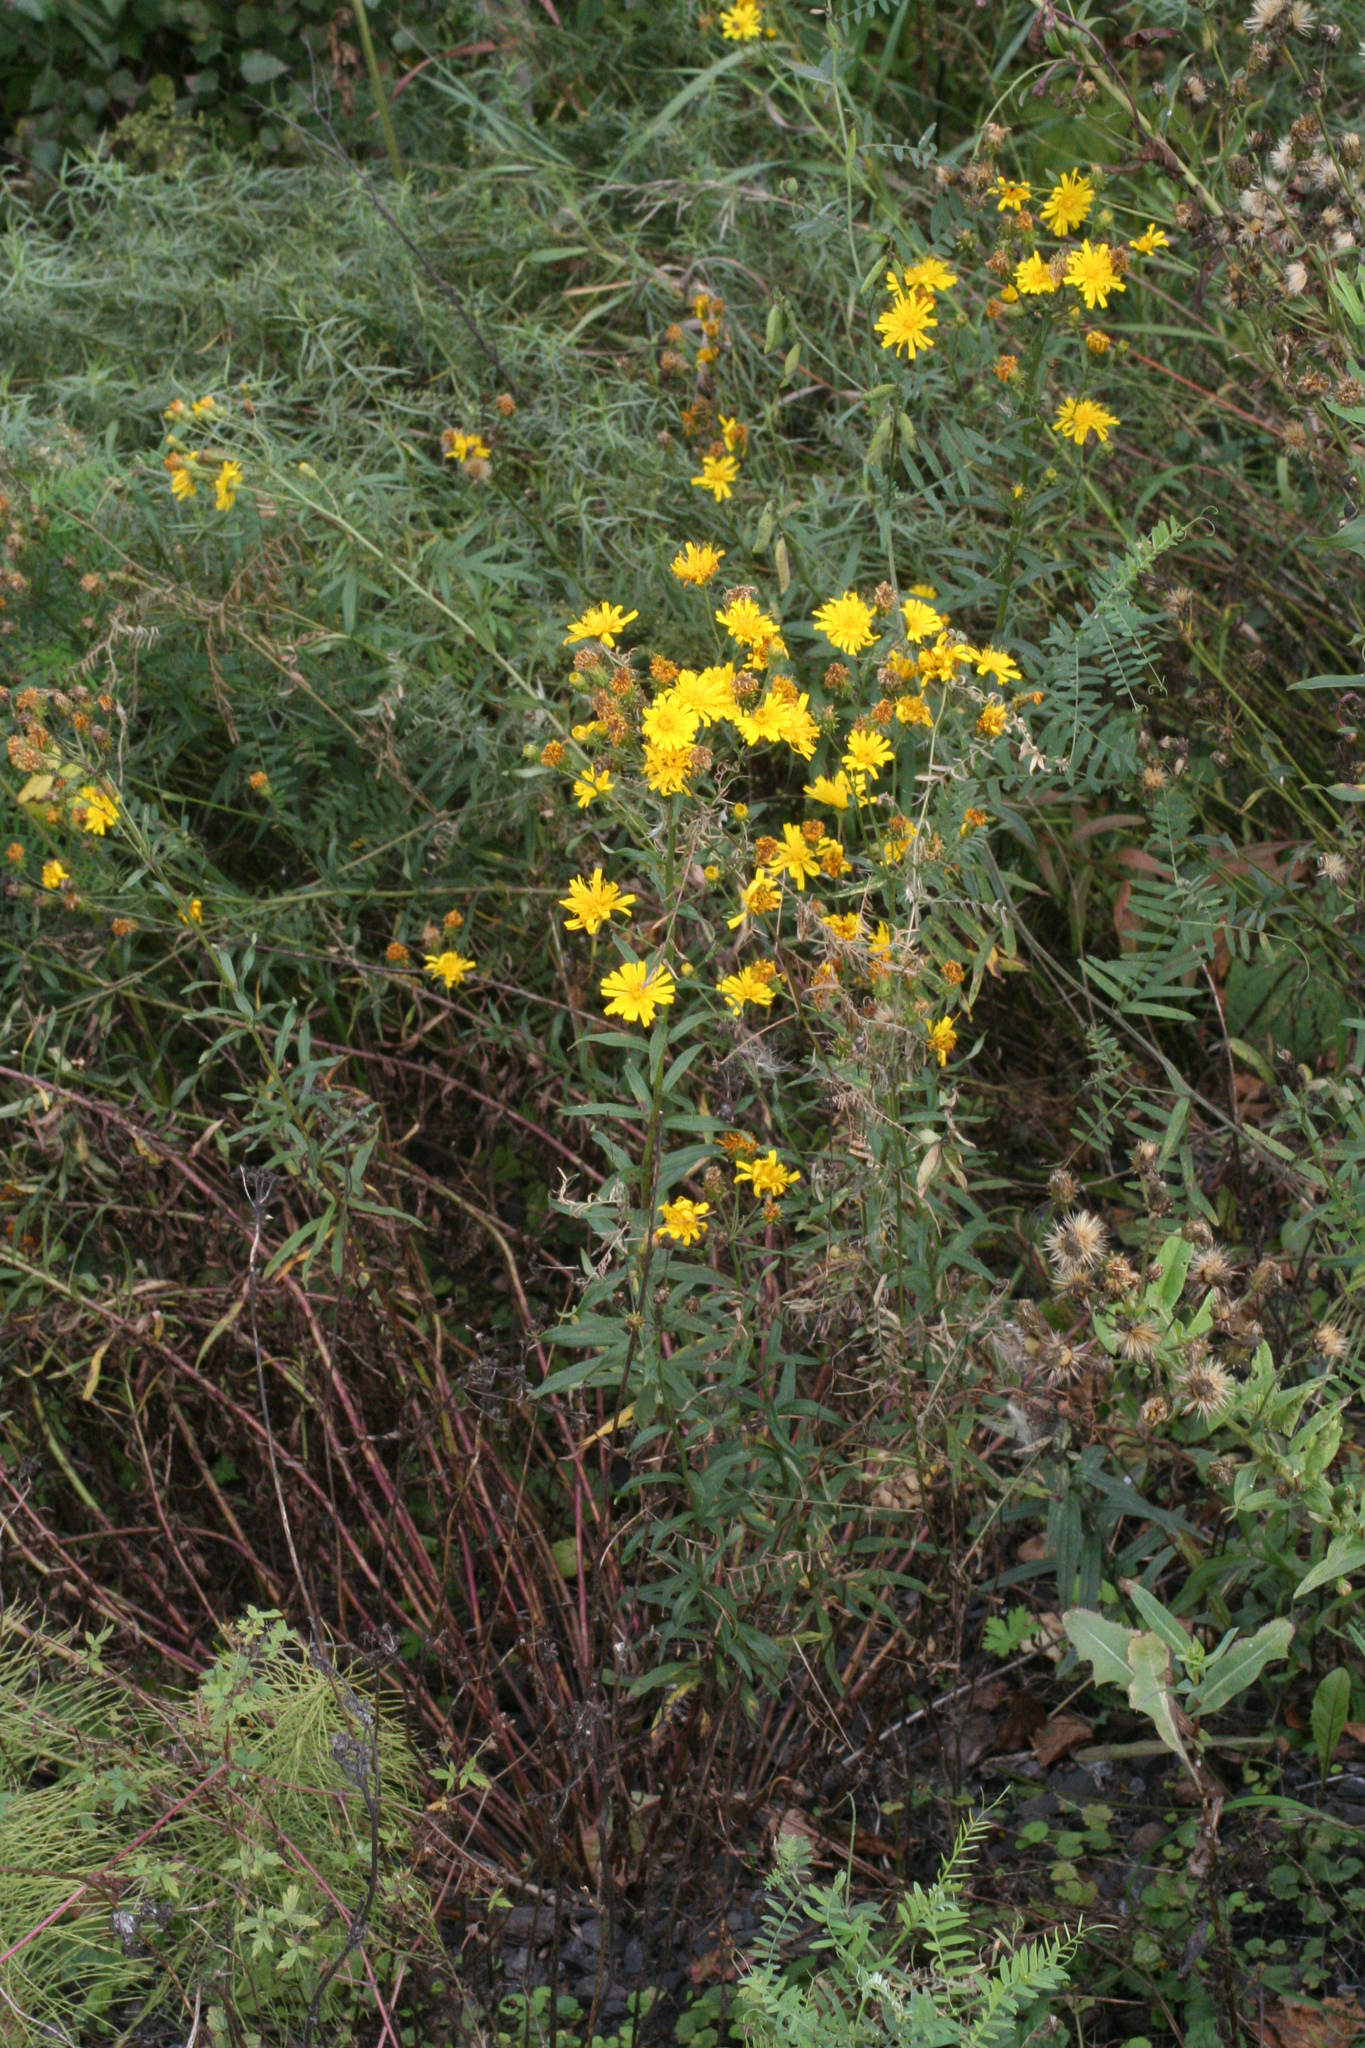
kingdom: Plantae
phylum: Tracheophyta
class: Magnoliopsida
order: Asterales
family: Asteraceae
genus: Hieracium
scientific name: Hieracium umbellatum
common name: Northern hawkweed
